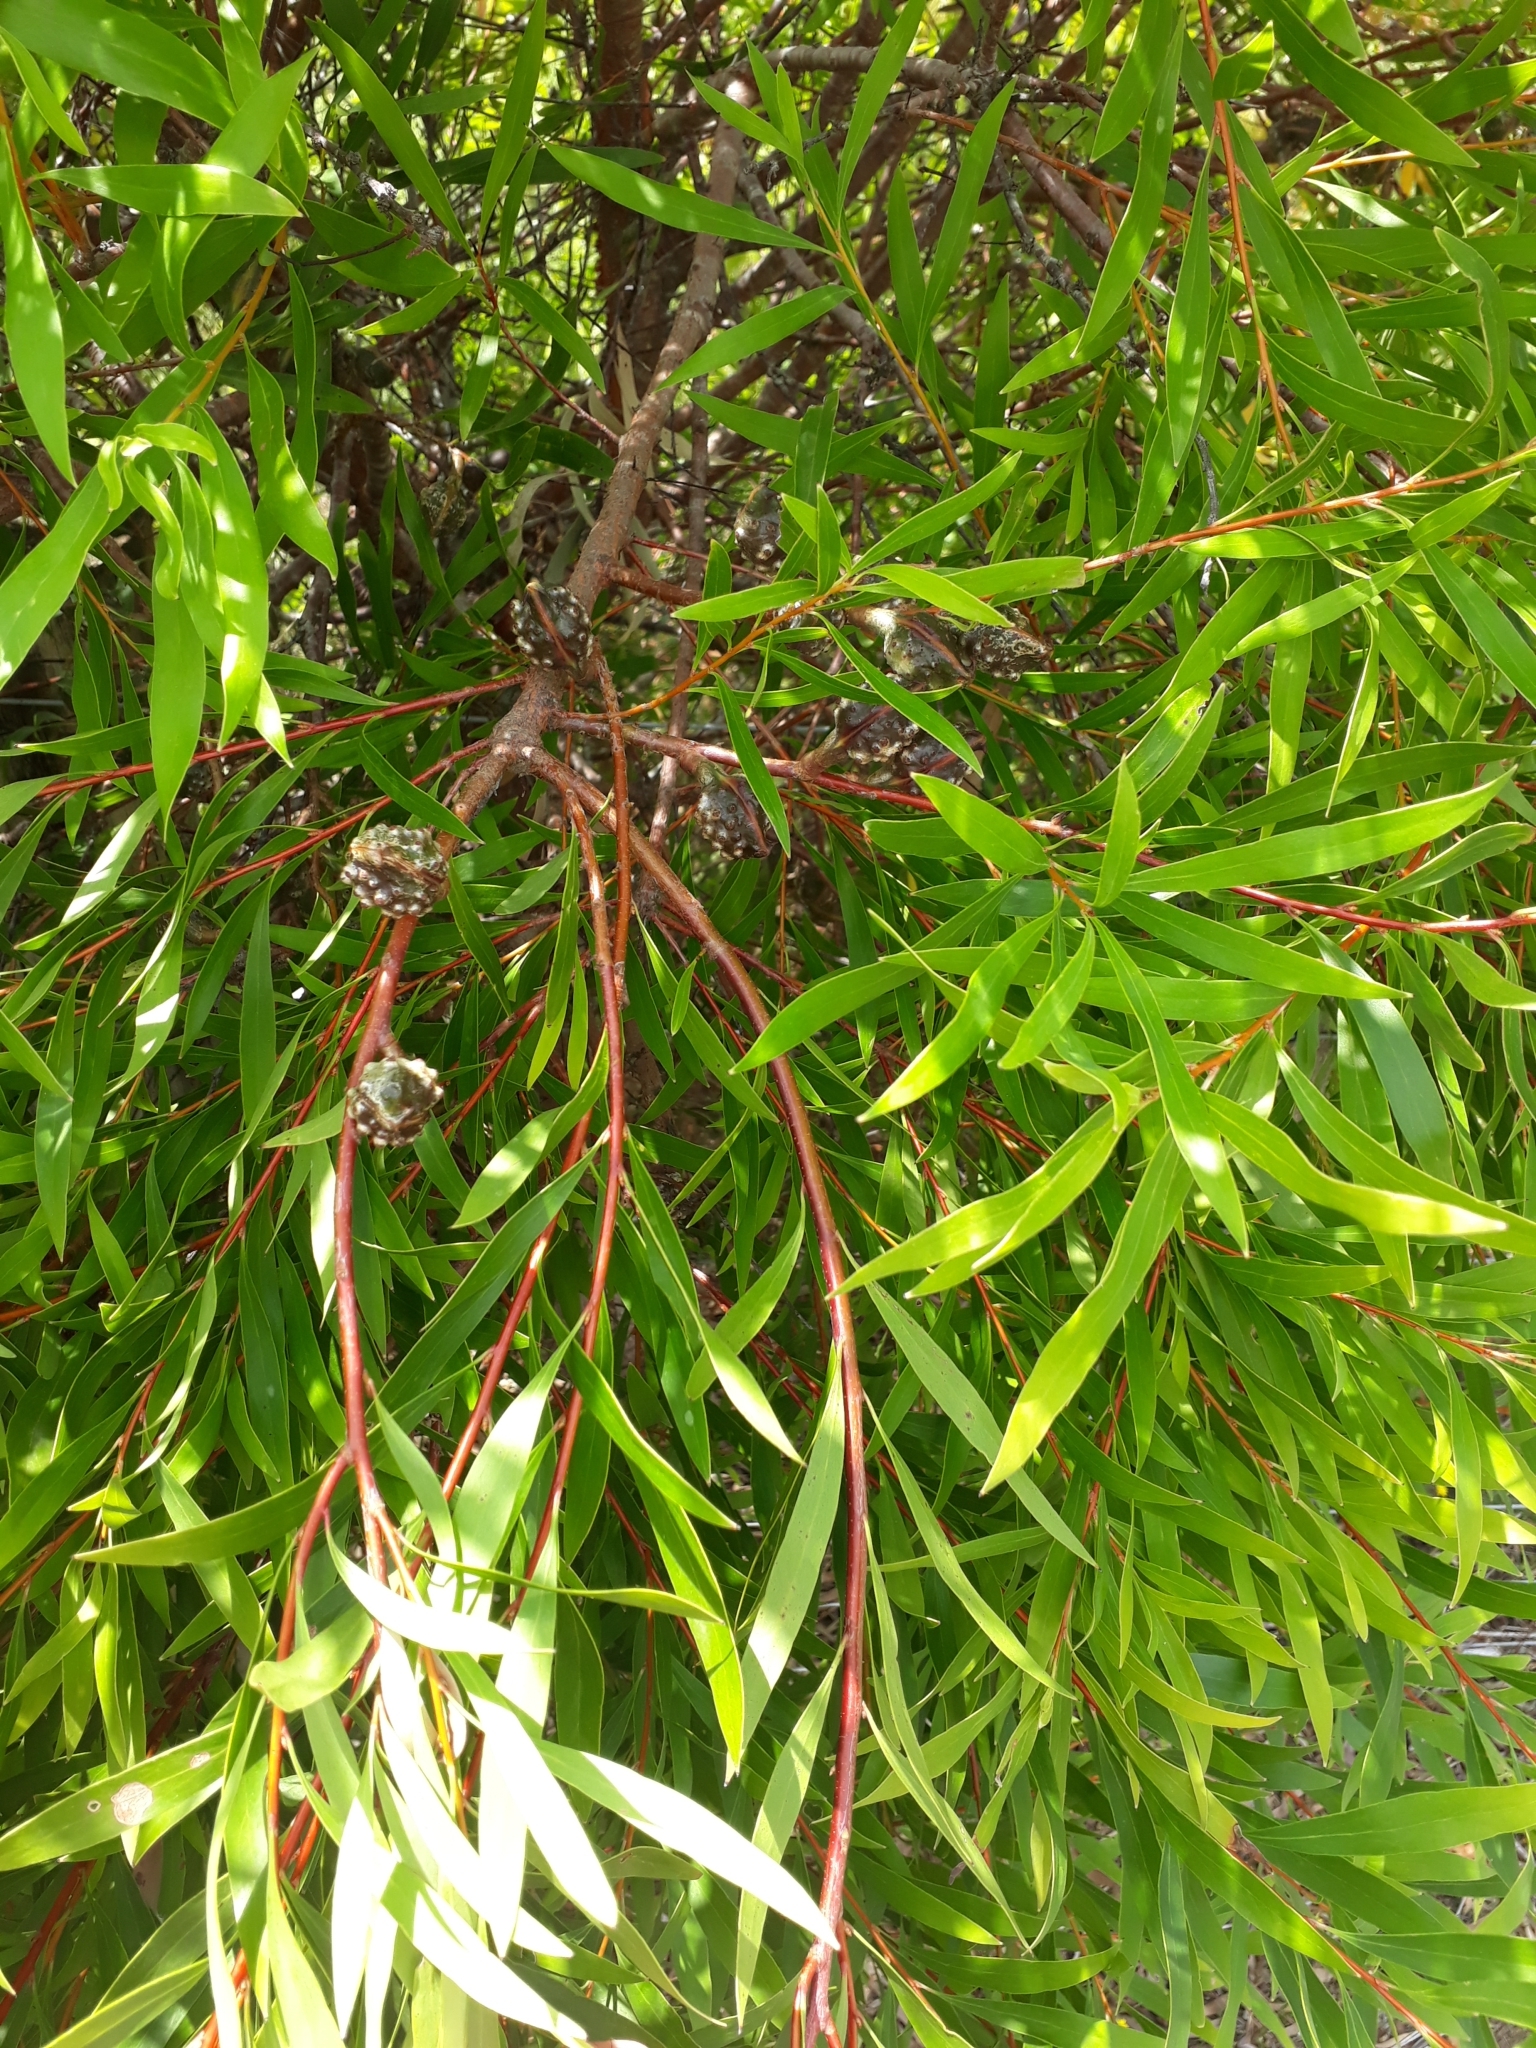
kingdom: Plantae
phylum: Tracheophyta
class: Magnoliopsida
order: Proteales
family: Proteaceae
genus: Hakea
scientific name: Hakea salicifolia
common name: Willow hakea
